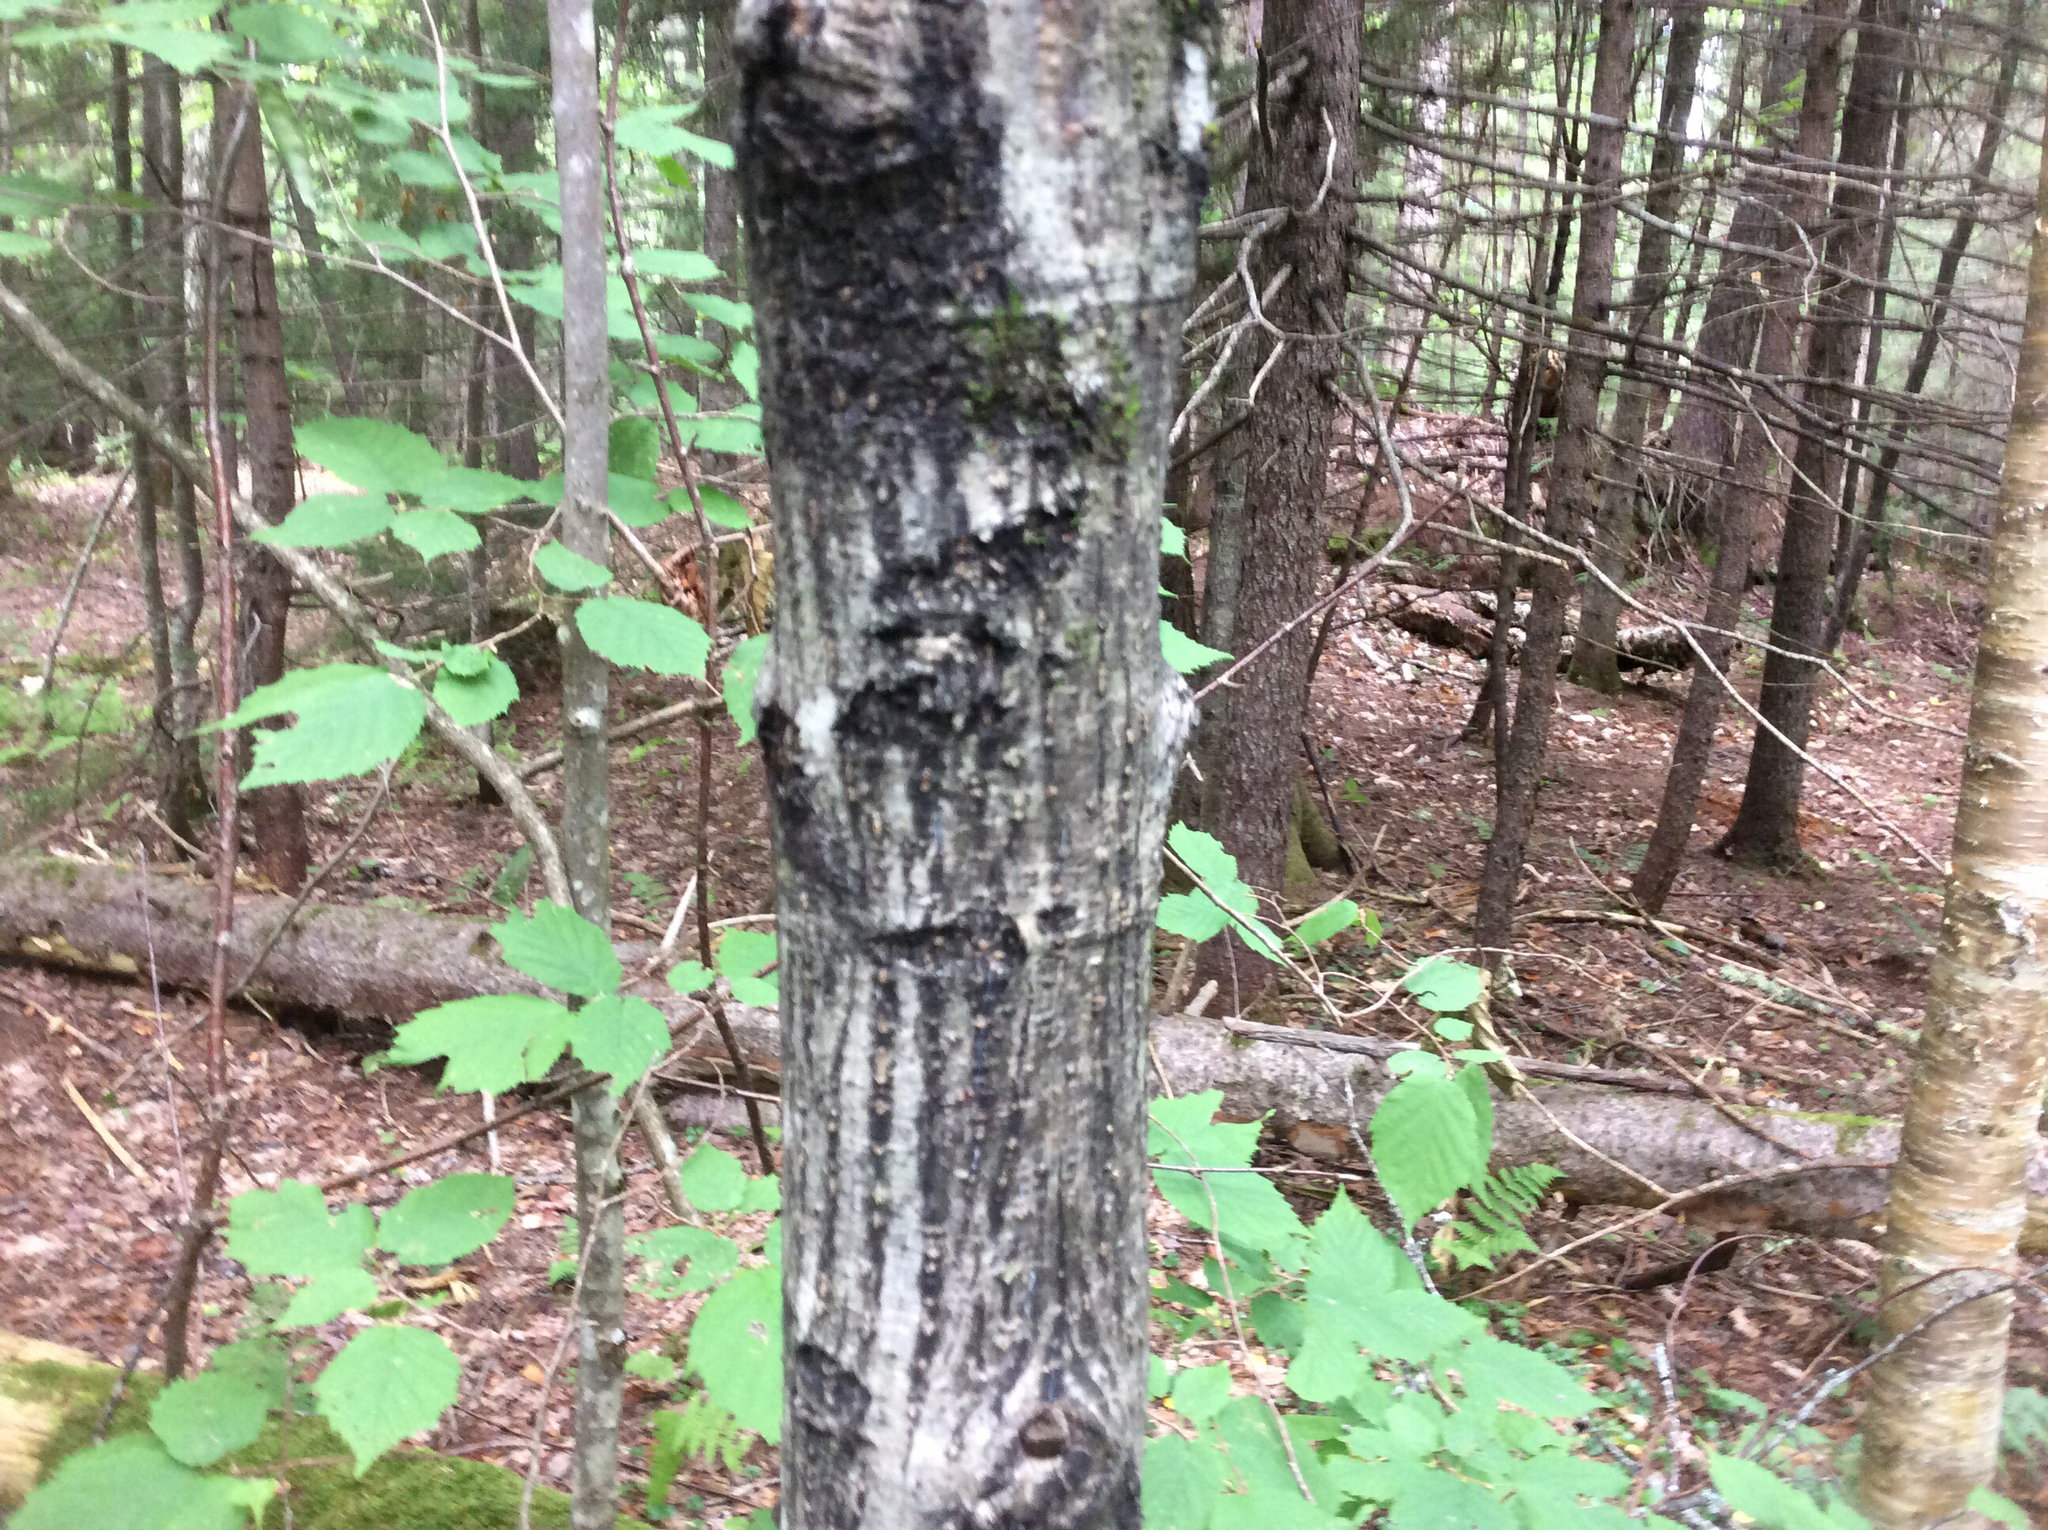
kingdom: Plantae
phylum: Tracheophyta
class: Magnoliopsida
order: Sapindales
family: Sapindaceae
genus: Acer
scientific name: Acer pensylvanicum
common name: Moosewood
